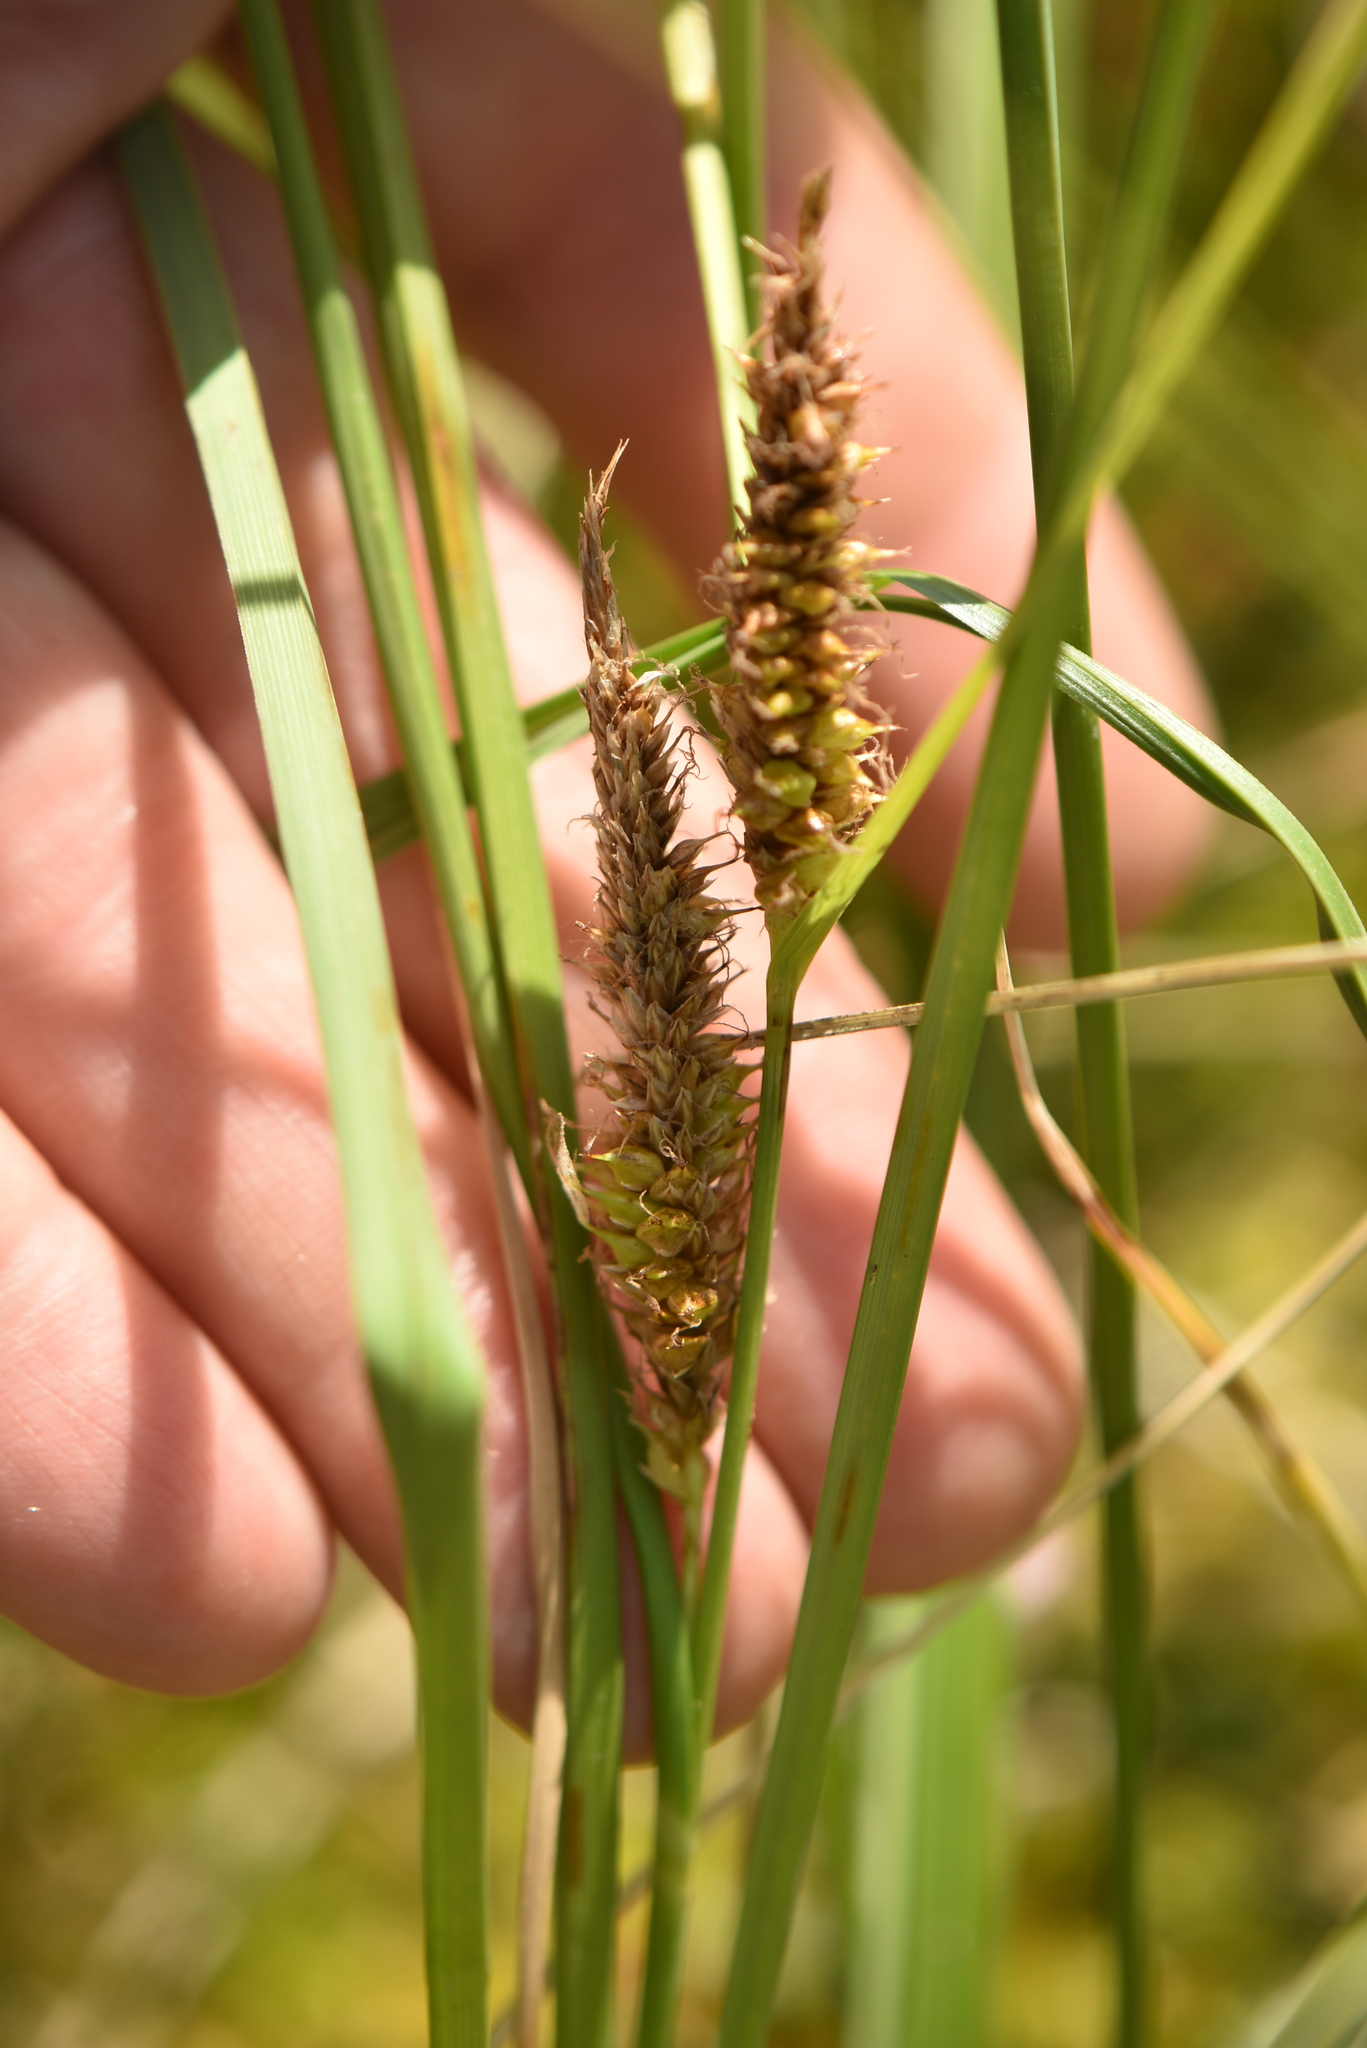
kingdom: Plantae
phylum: Tracheophyta
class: Liliopsida
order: Poales
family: Cyperaceae
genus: Carex
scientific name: Carex rostrata
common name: Bottle sedge
